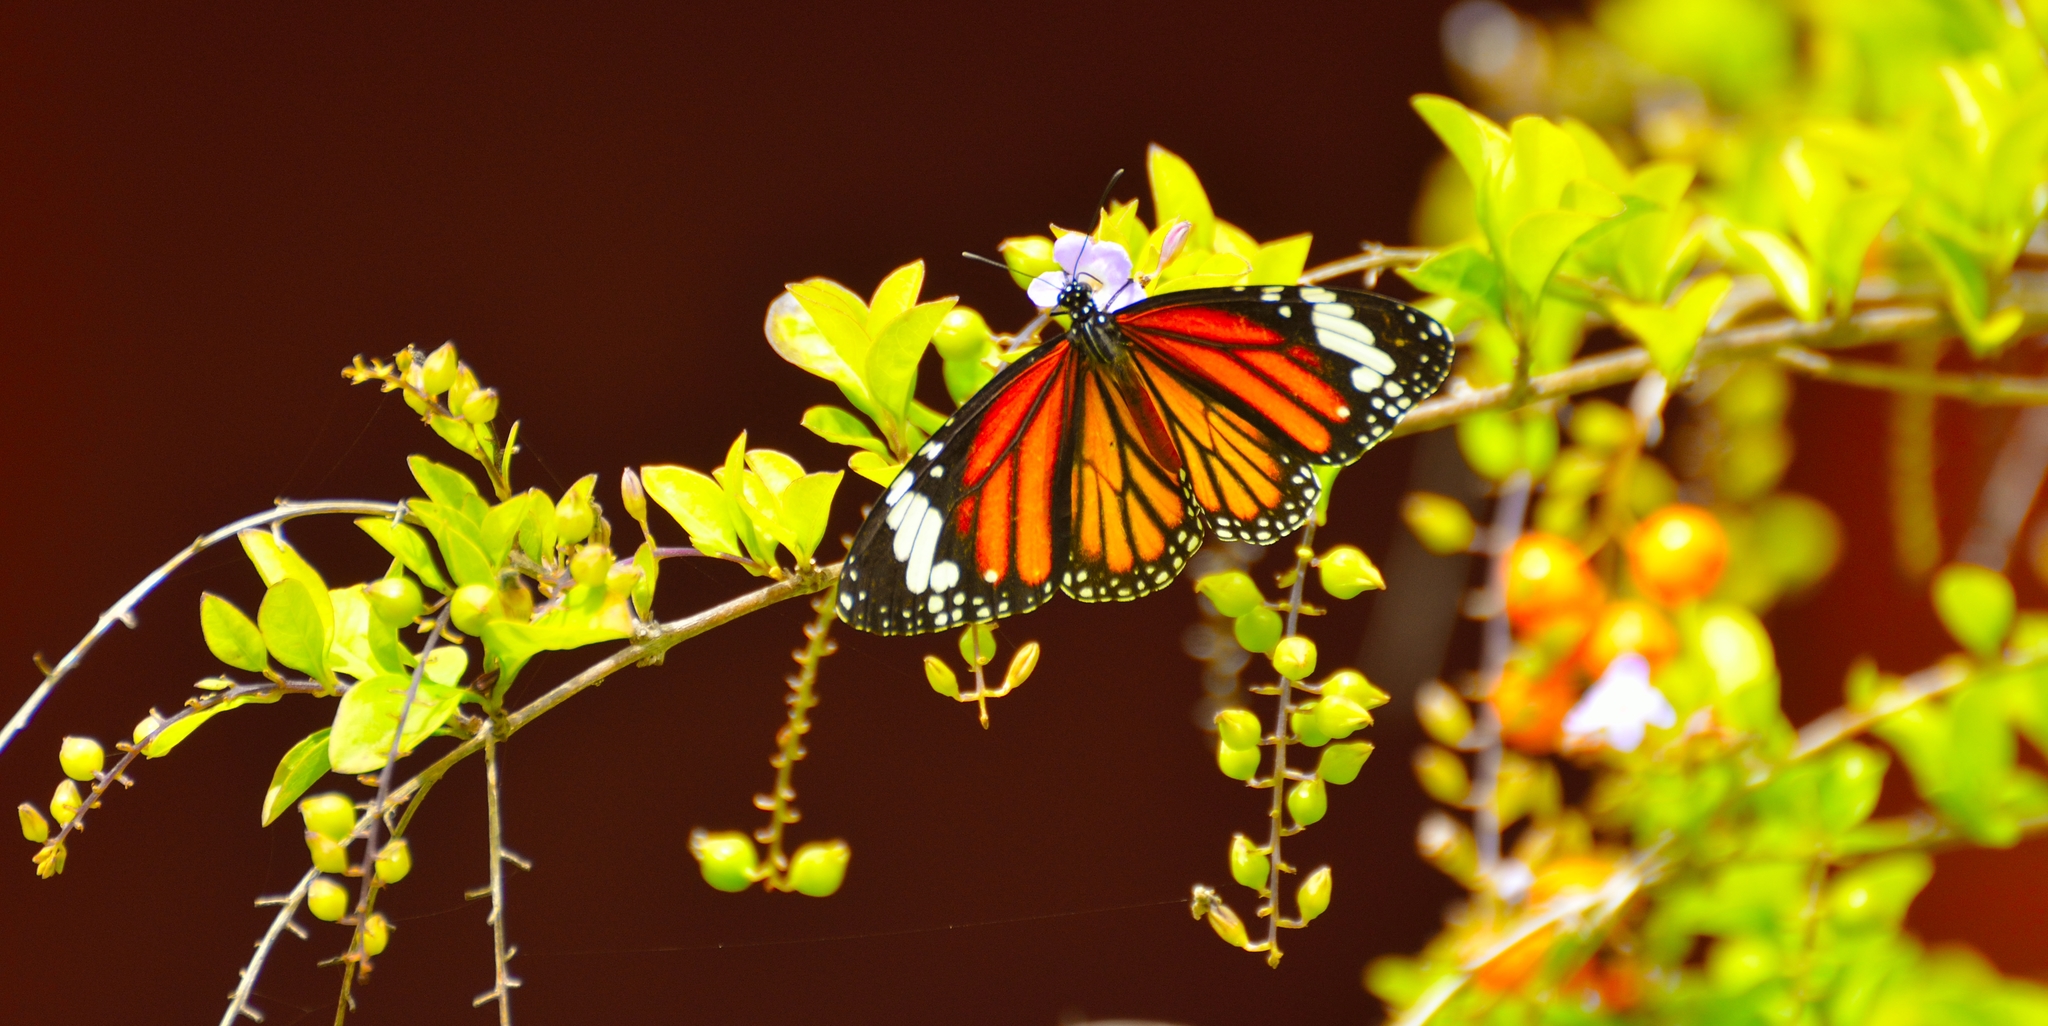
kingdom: Animalia
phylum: Arthropoda
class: Insecta
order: Lepidoptera
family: Nymphalidae
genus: Danaus
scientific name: Danaus genutia
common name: Common tiger butterfly
